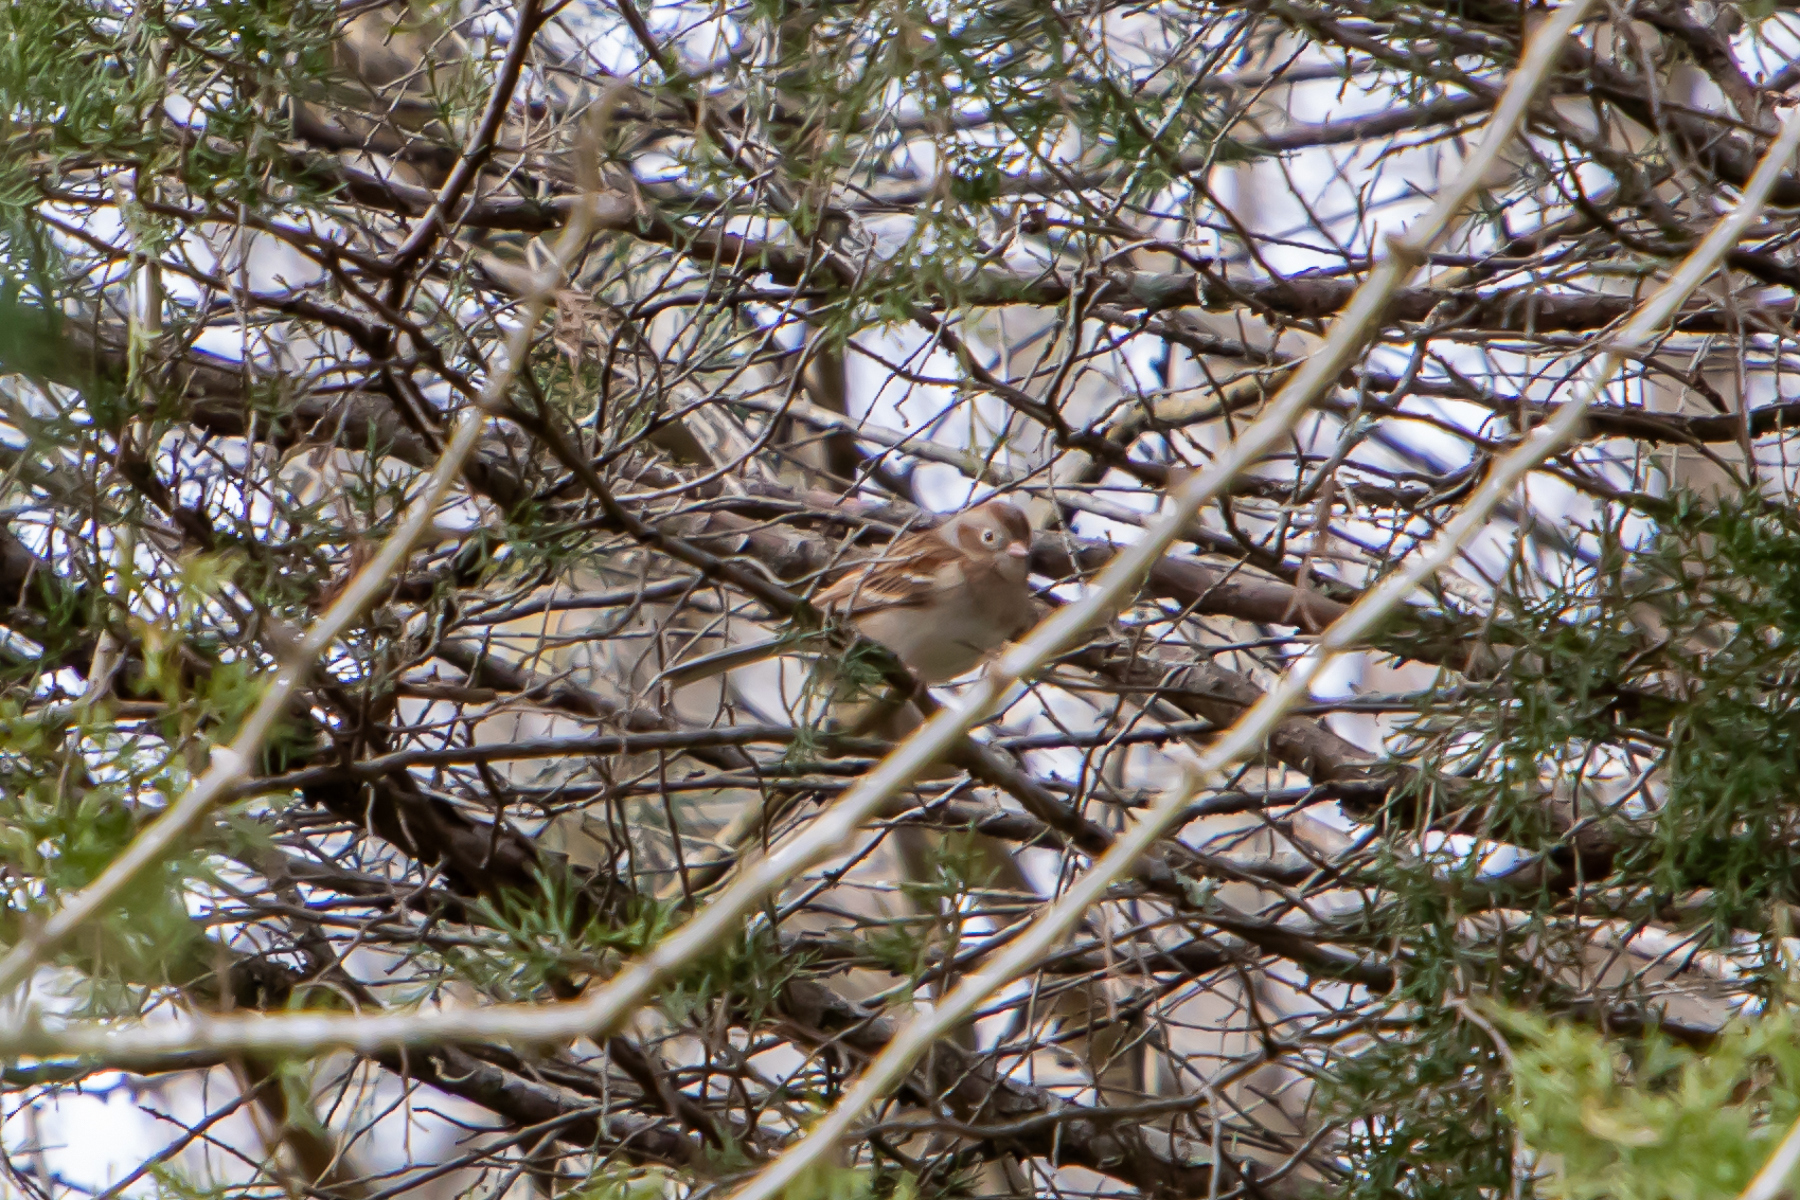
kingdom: Animalia
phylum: Chordata
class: Aves
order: Passeriformes
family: Passerellidae
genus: Spizella
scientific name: Spizella pusilla
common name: Field sparrow
